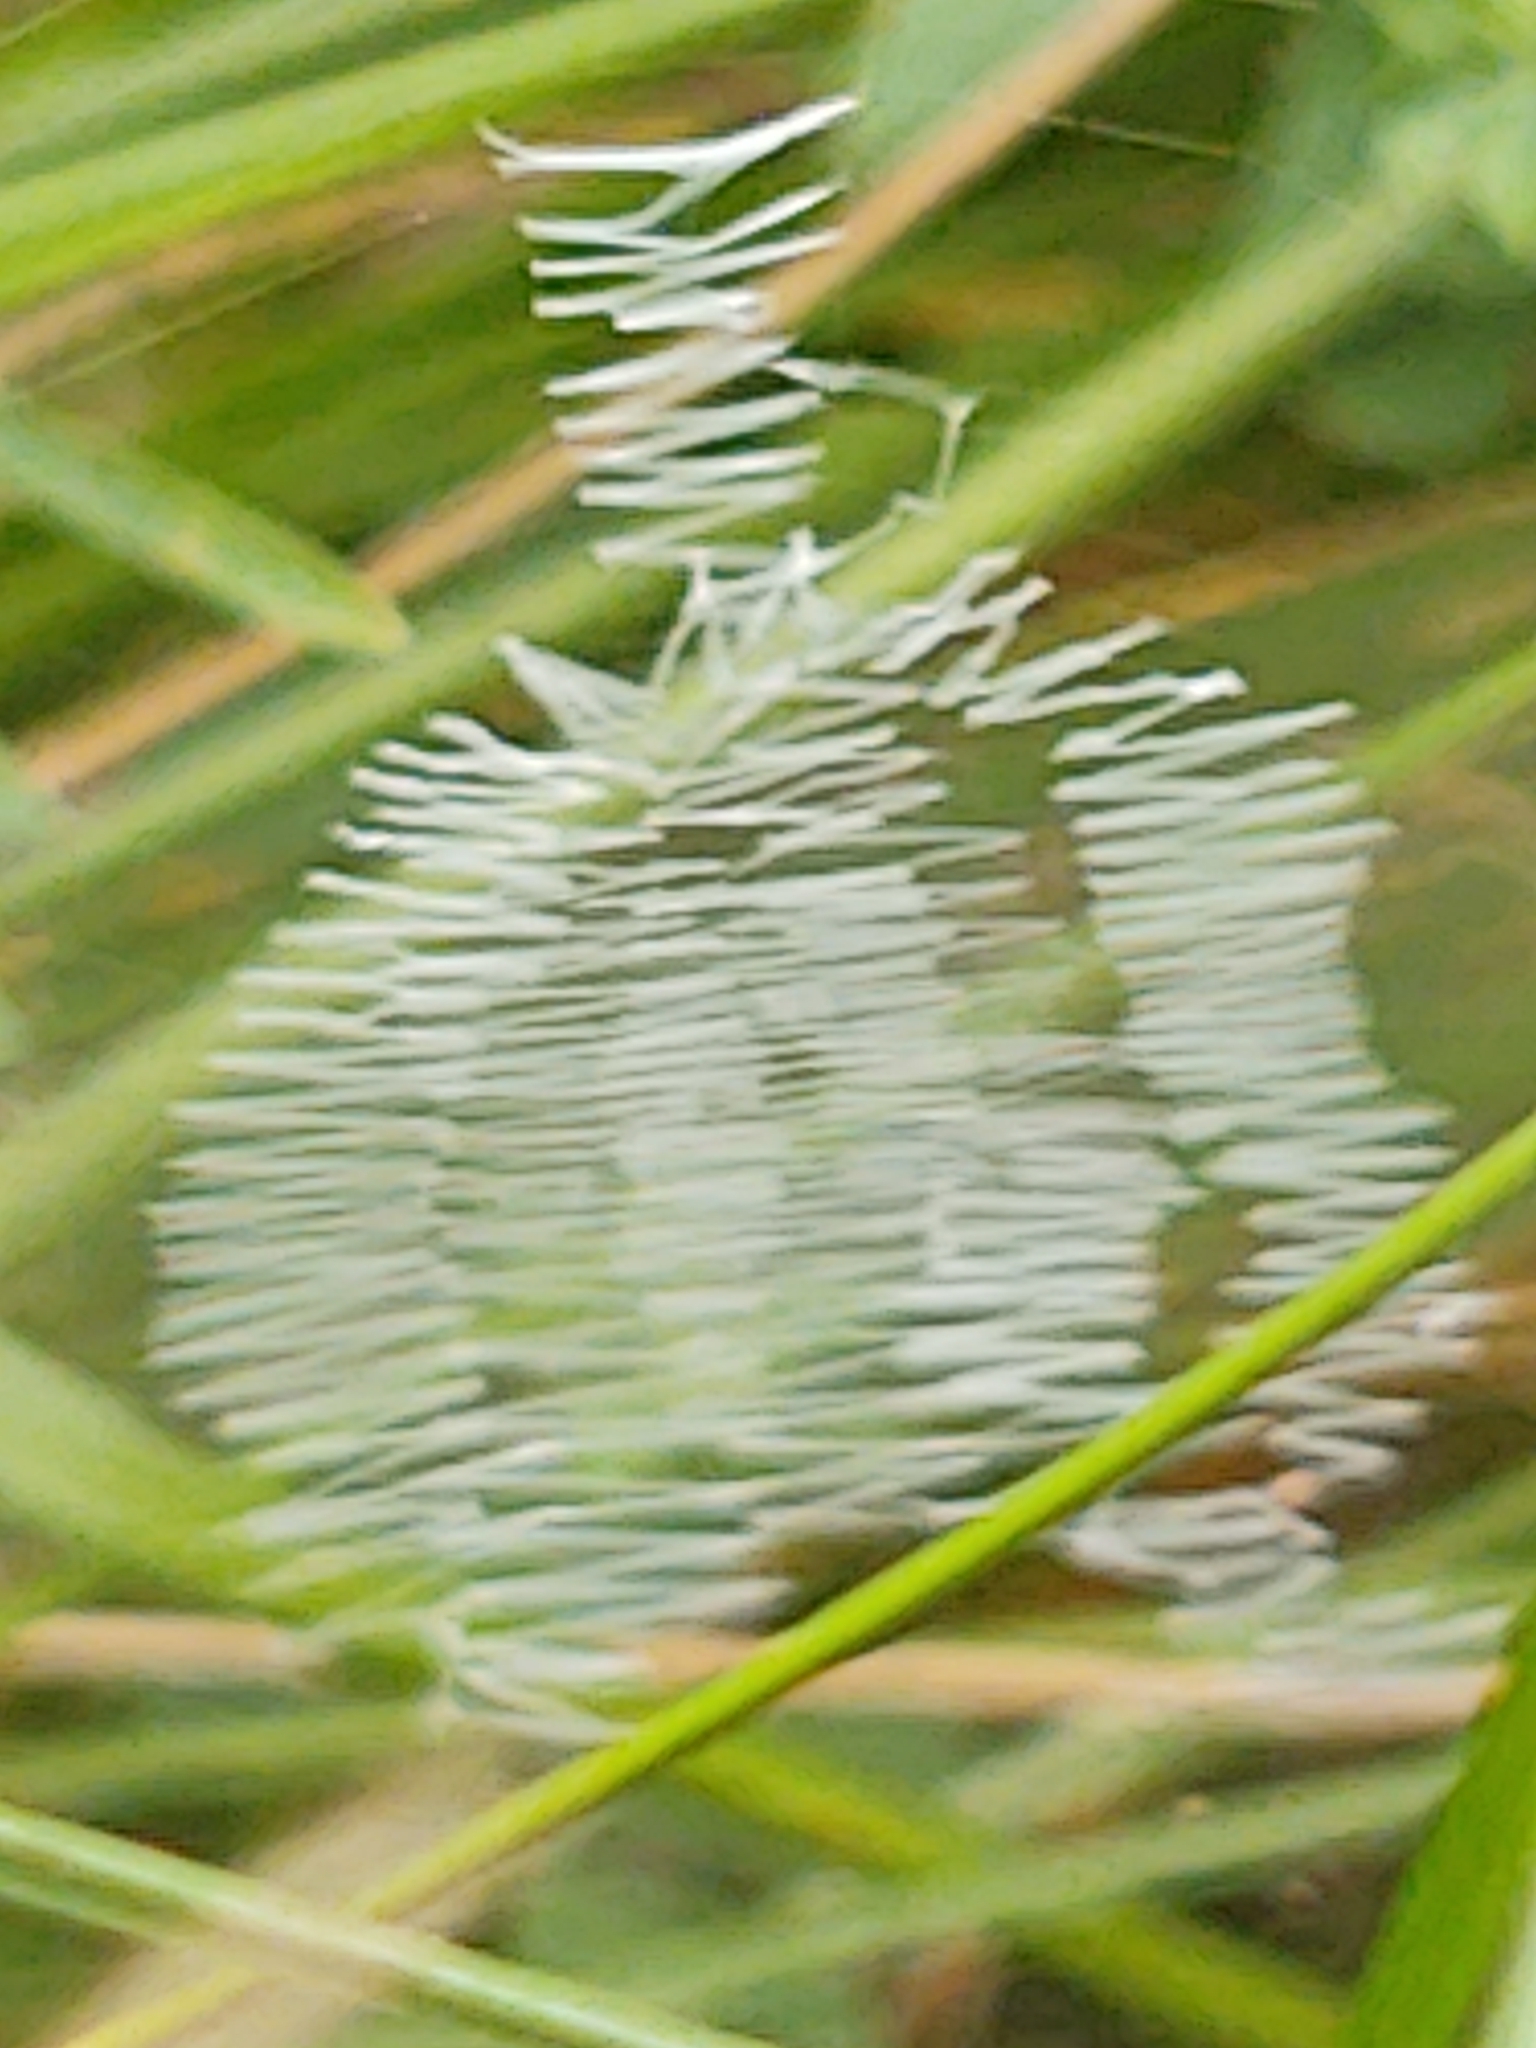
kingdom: Animalia
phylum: Arthropoda
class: Arachnida
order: Araneae
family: Araneidae
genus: Argiope
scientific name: Argiope aurantia
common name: Orb weavers
